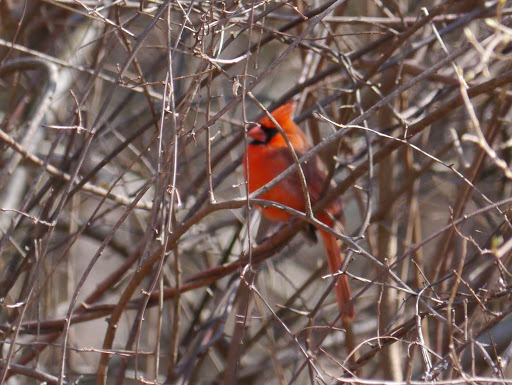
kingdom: Animalia
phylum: Chordata
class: Aves
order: Passeriformes
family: Cardinalidae
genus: Cardinalis
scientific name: Cardinalis cardinalis
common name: Northern cardinal
